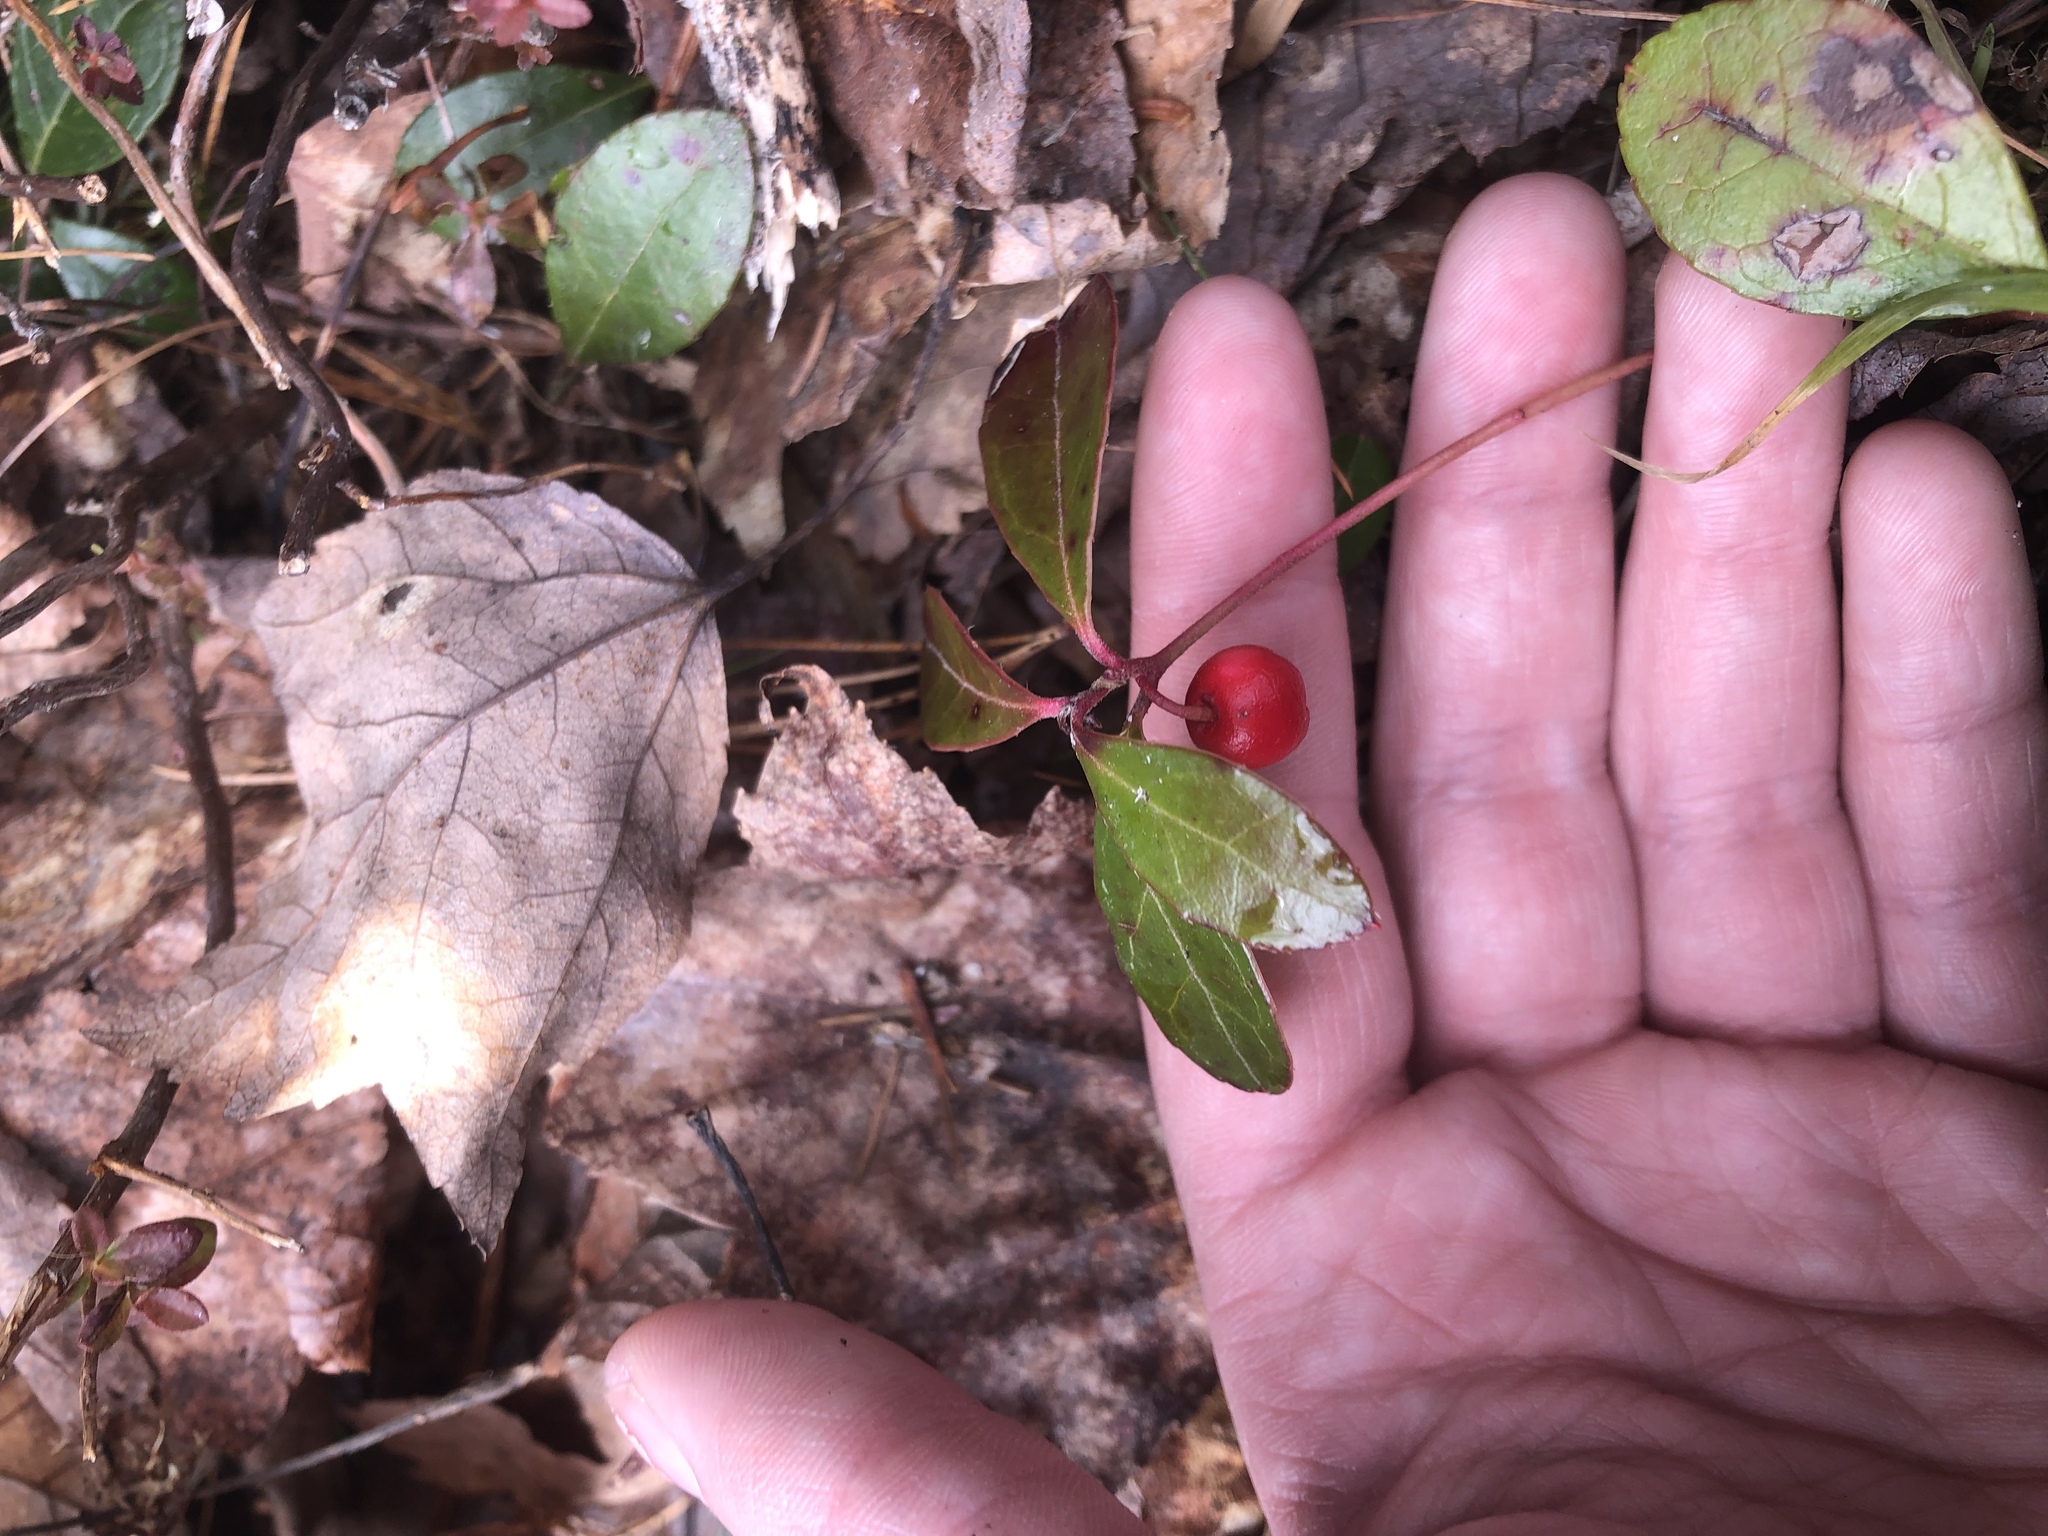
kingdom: Plantae
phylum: Tracheophyta
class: Magnoliopsida
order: Ericales
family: Ericaceae
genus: Gaultheria
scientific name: Gaultheria procumbens
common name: Checkerberry
